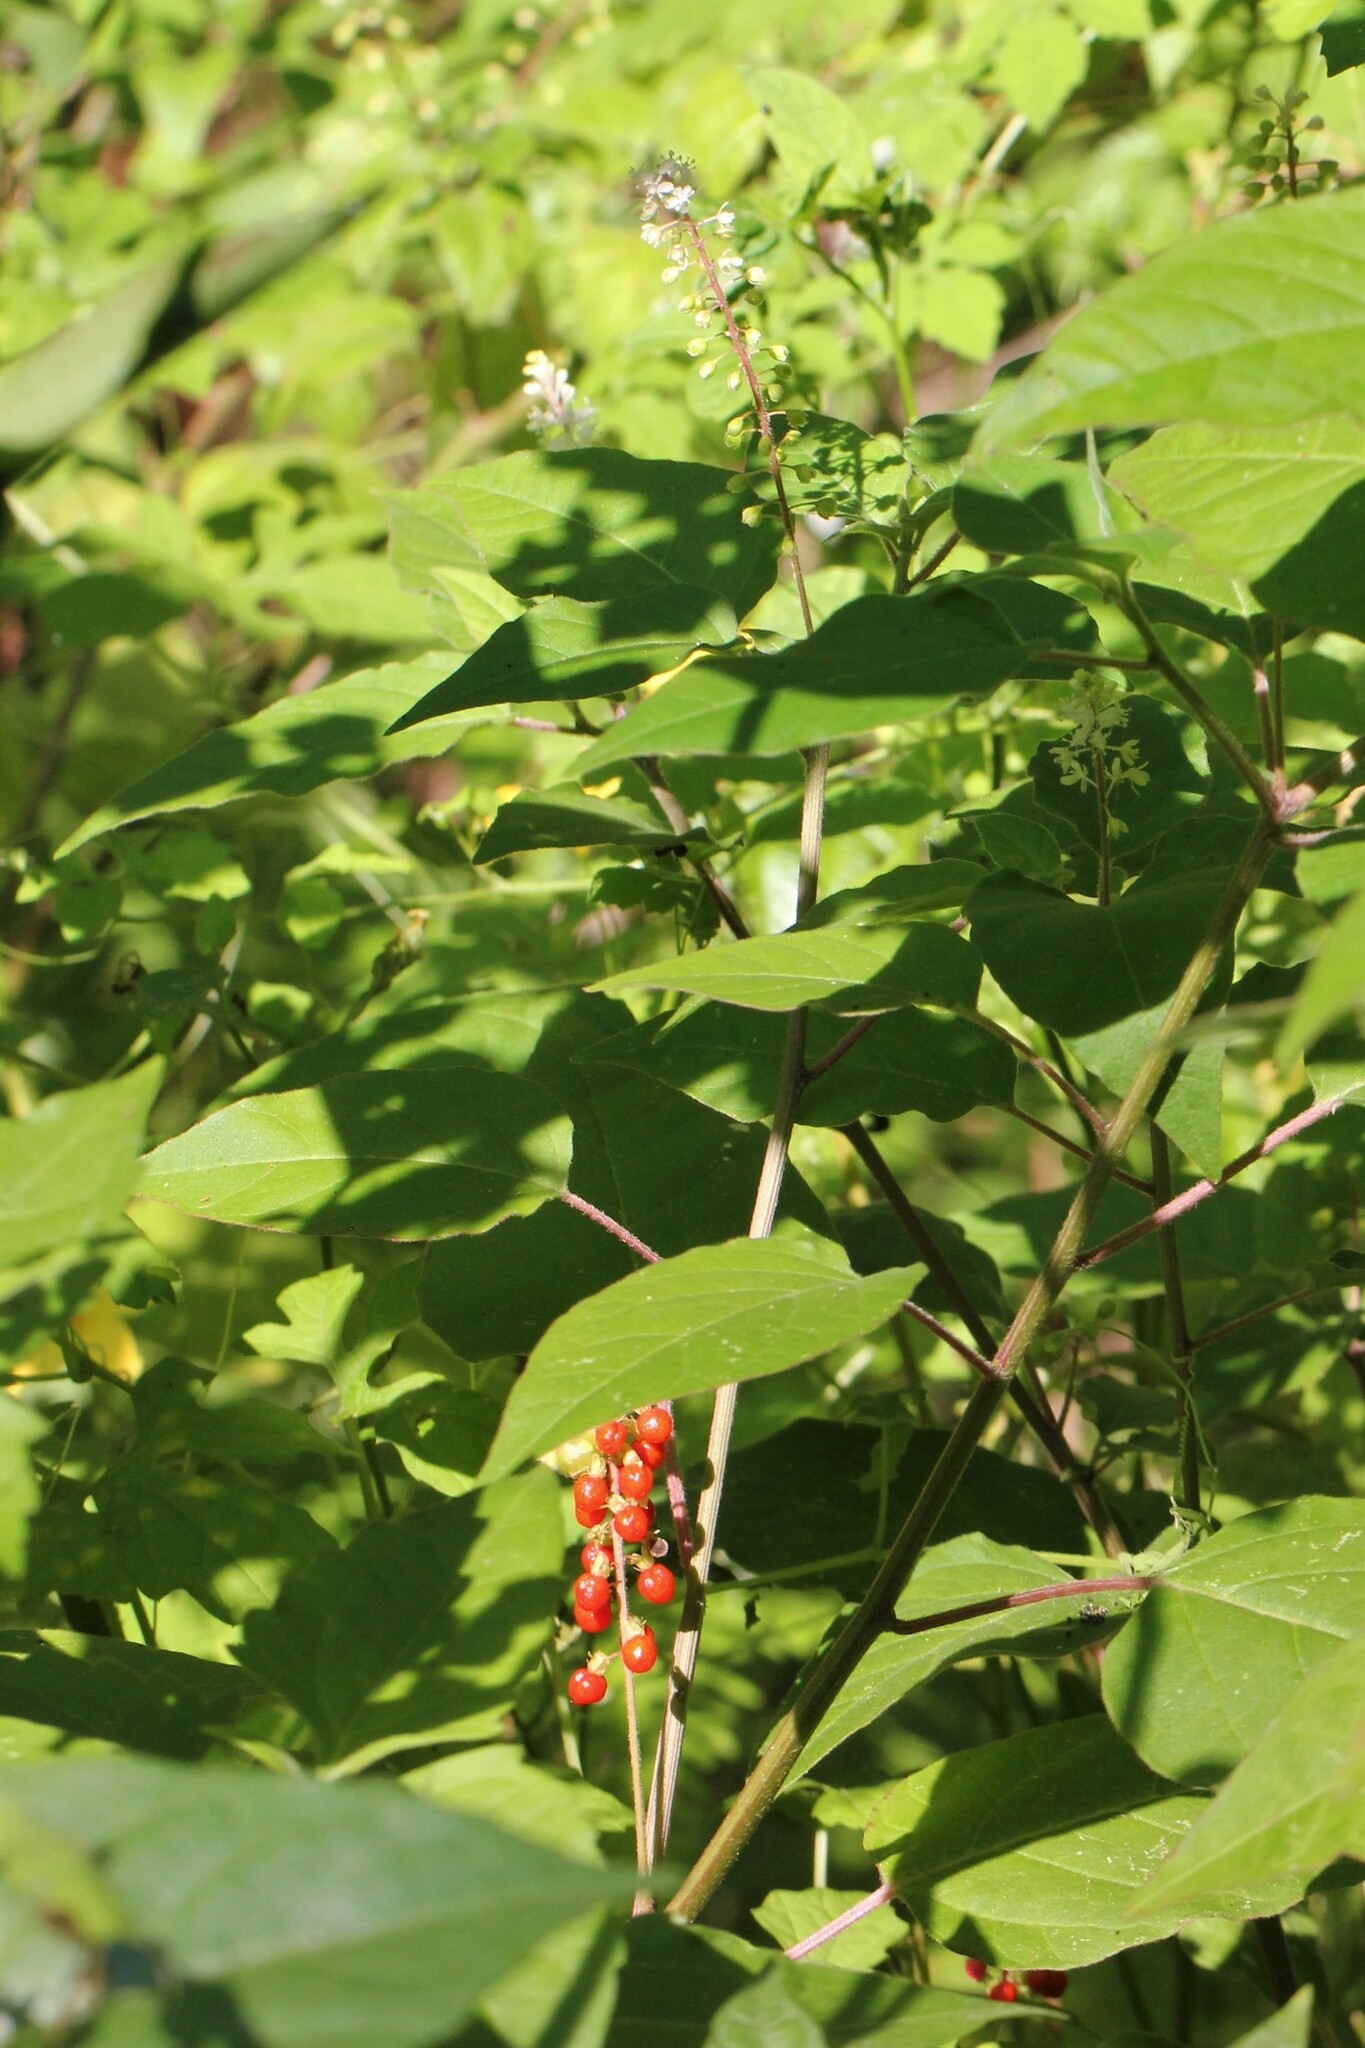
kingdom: Plantae
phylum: Tracheophyta
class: Magnoliopsida
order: Caryophyllales
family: Phytolaccaceae
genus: Rivina
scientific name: Rivina humilis
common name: Rougeplant
